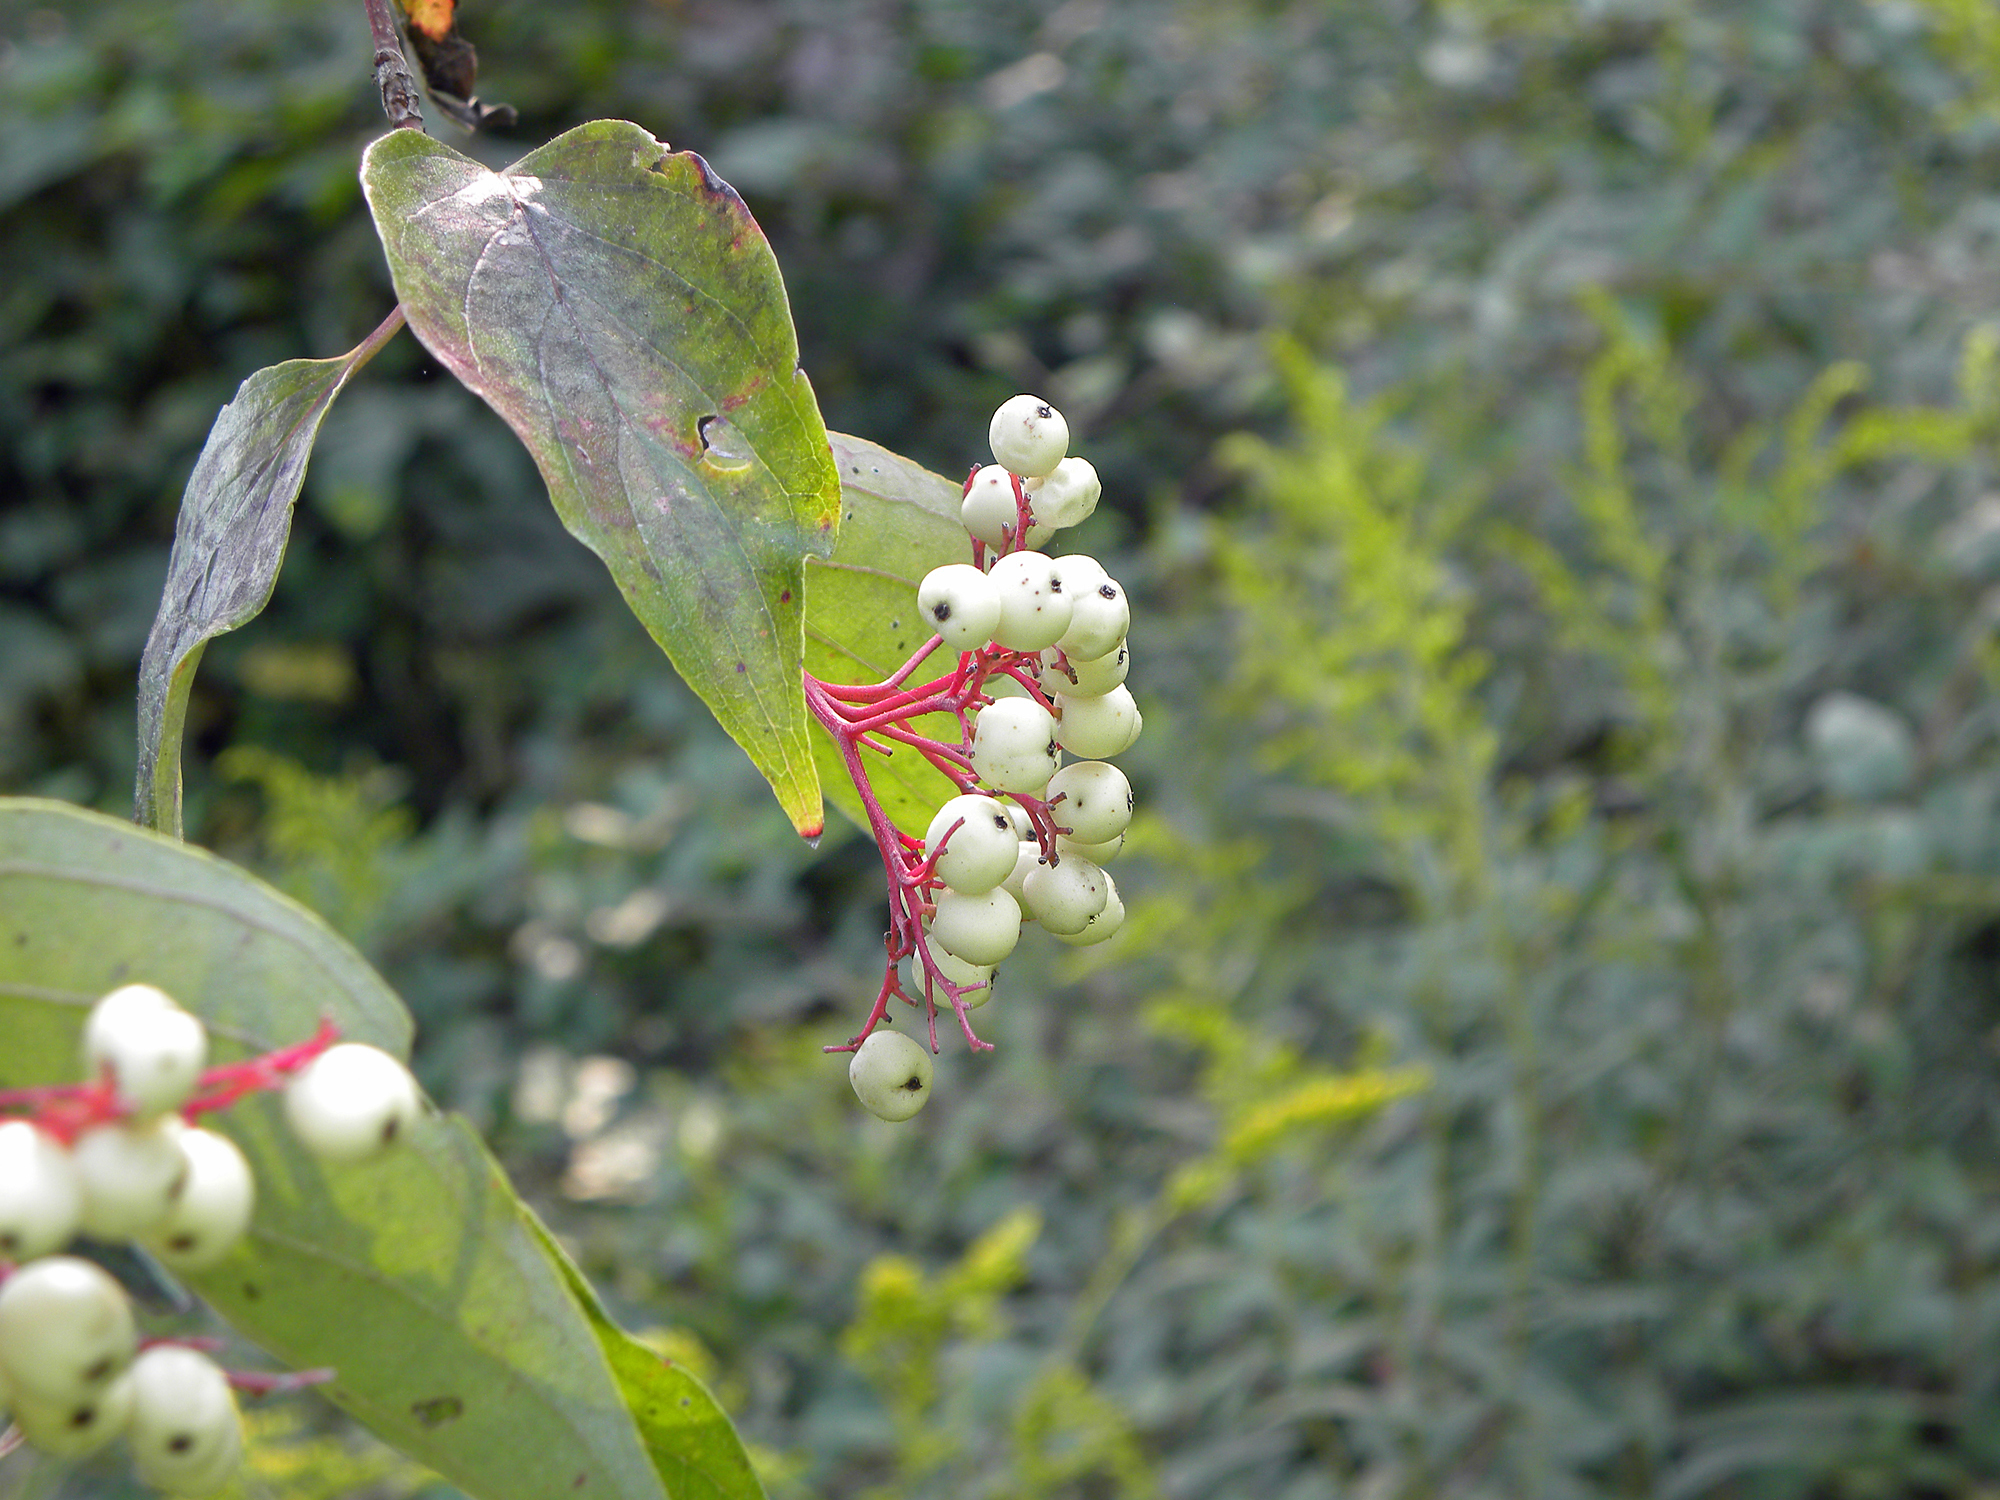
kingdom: Plantae
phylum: Tracheophyta
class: Magnoliopsida
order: Cornales
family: Cornaceae
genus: Cornus
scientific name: Cornus drummondii
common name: Rough-leaf dogwood
